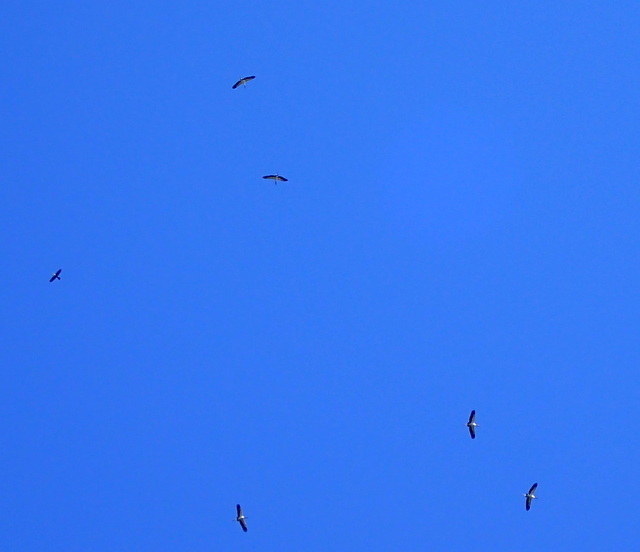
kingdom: Animalia
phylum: Chordata
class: Aves
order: Ciconiiformes
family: Ciconiidae
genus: Mycteria
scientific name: Mycteria americana
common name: Wood stork
